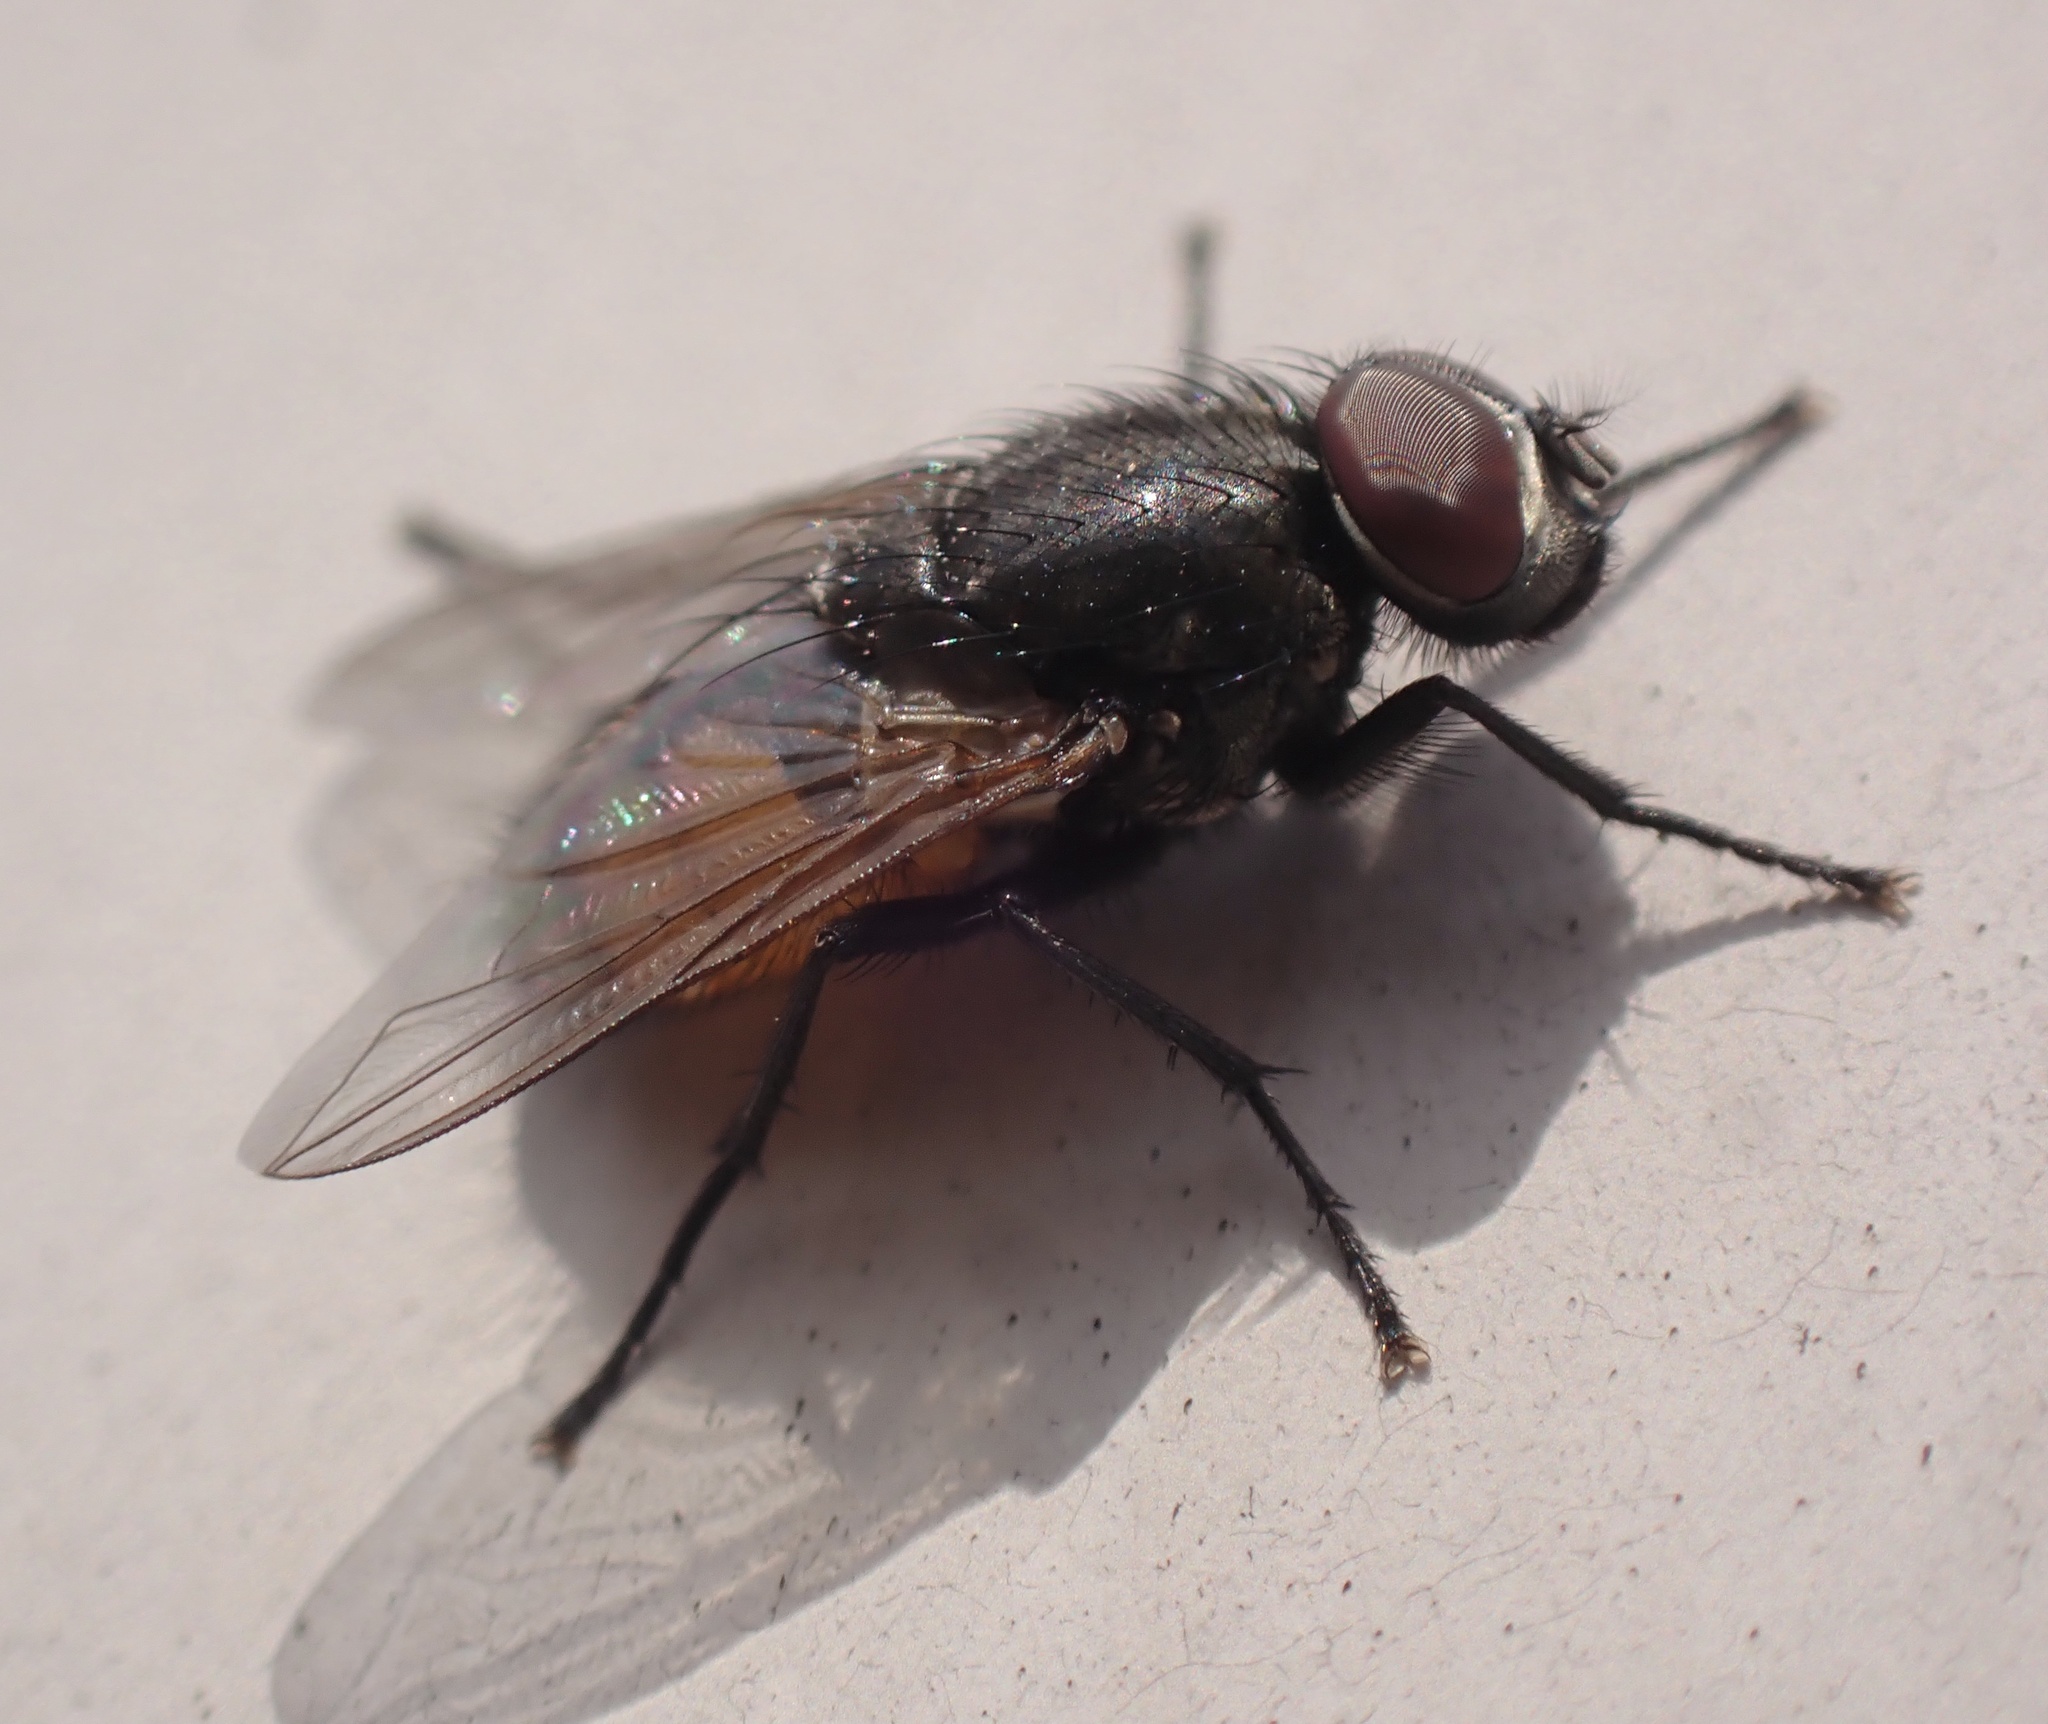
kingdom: Animalia
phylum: Arthropoda
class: Insecta
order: Diptera
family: Muscidae
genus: Musca
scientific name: Musca autumnalis
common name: Face fly
